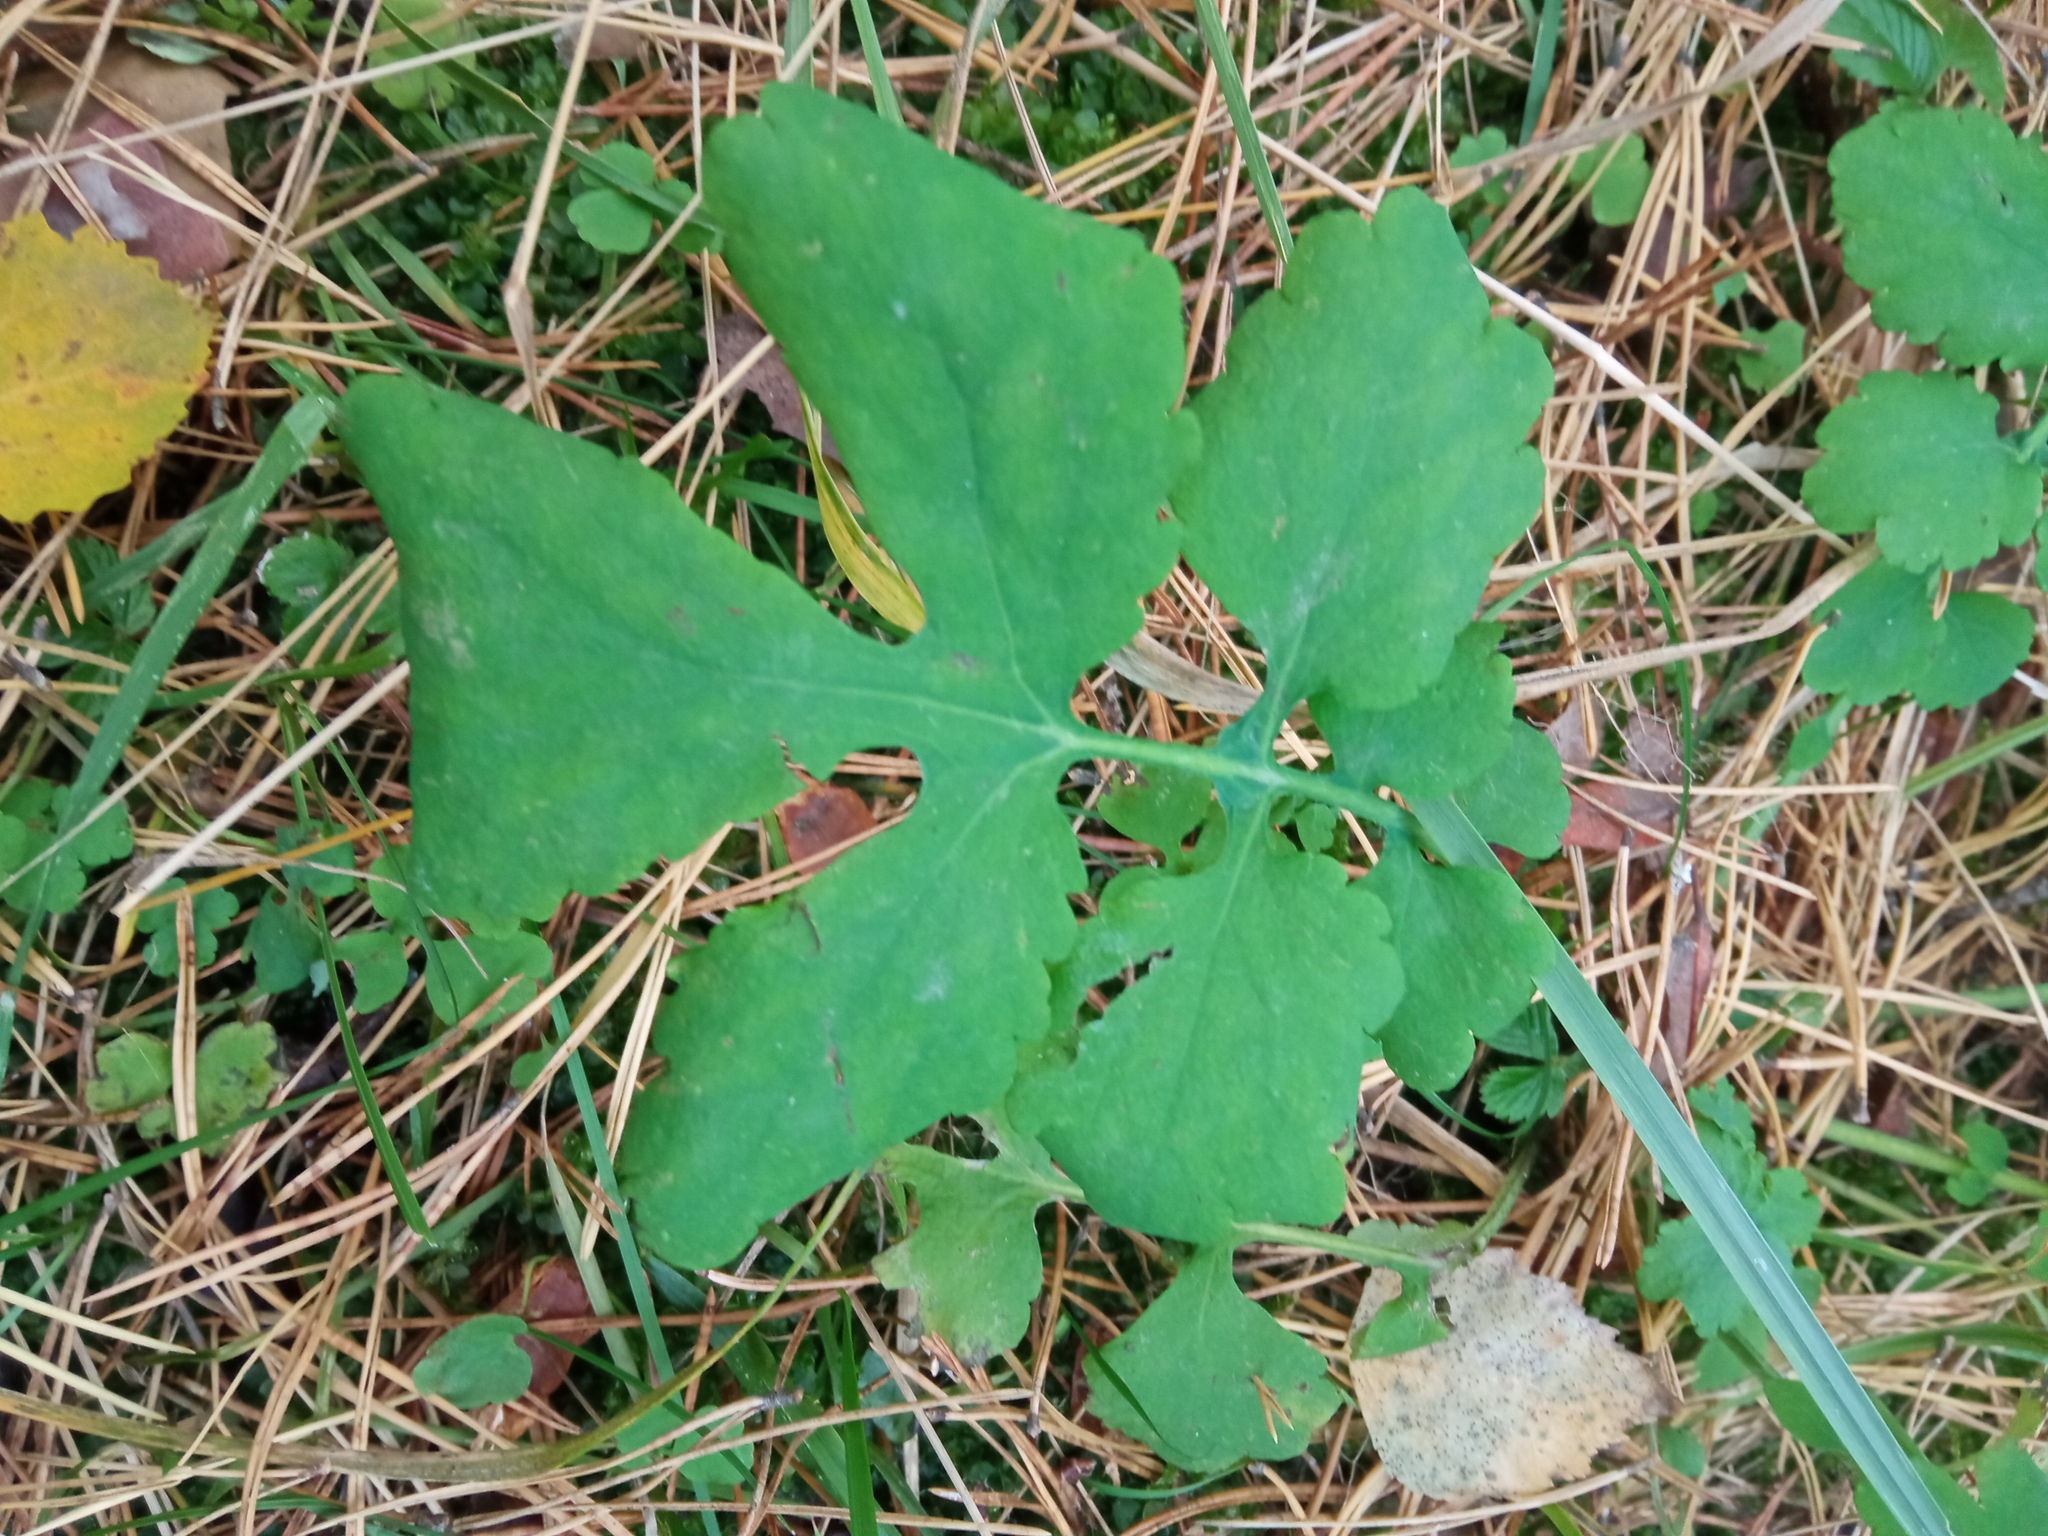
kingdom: Plantae
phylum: Tracheophyta
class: Magnoliopsida
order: Ranunculales
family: Papaveraceae
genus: Chelidonium
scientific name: Chelidonium majus
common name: Greater celandine
